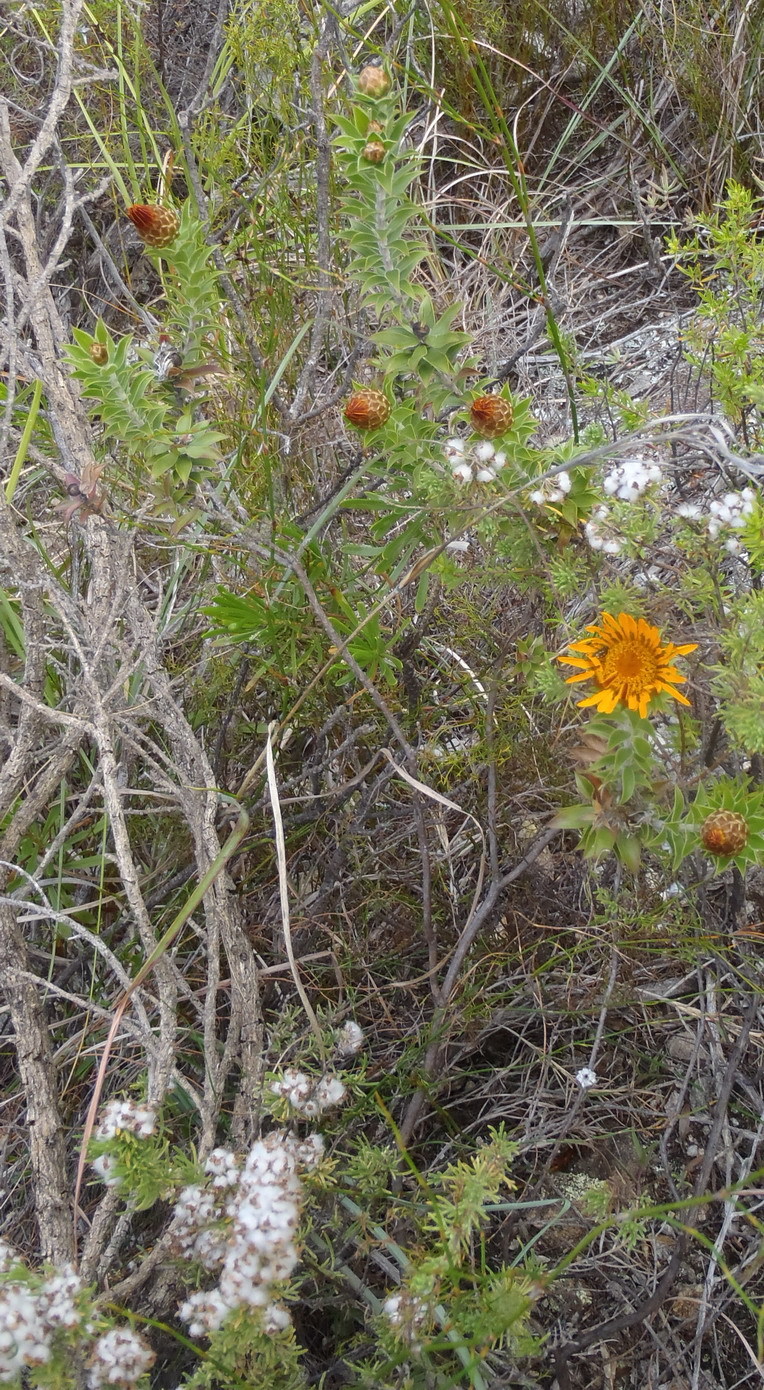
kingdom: Plantae
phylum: Tracheophyta
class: Magnoliopsida
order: Asterales
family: Asteraceae
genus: Oedera
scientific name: Oedera speciosa
